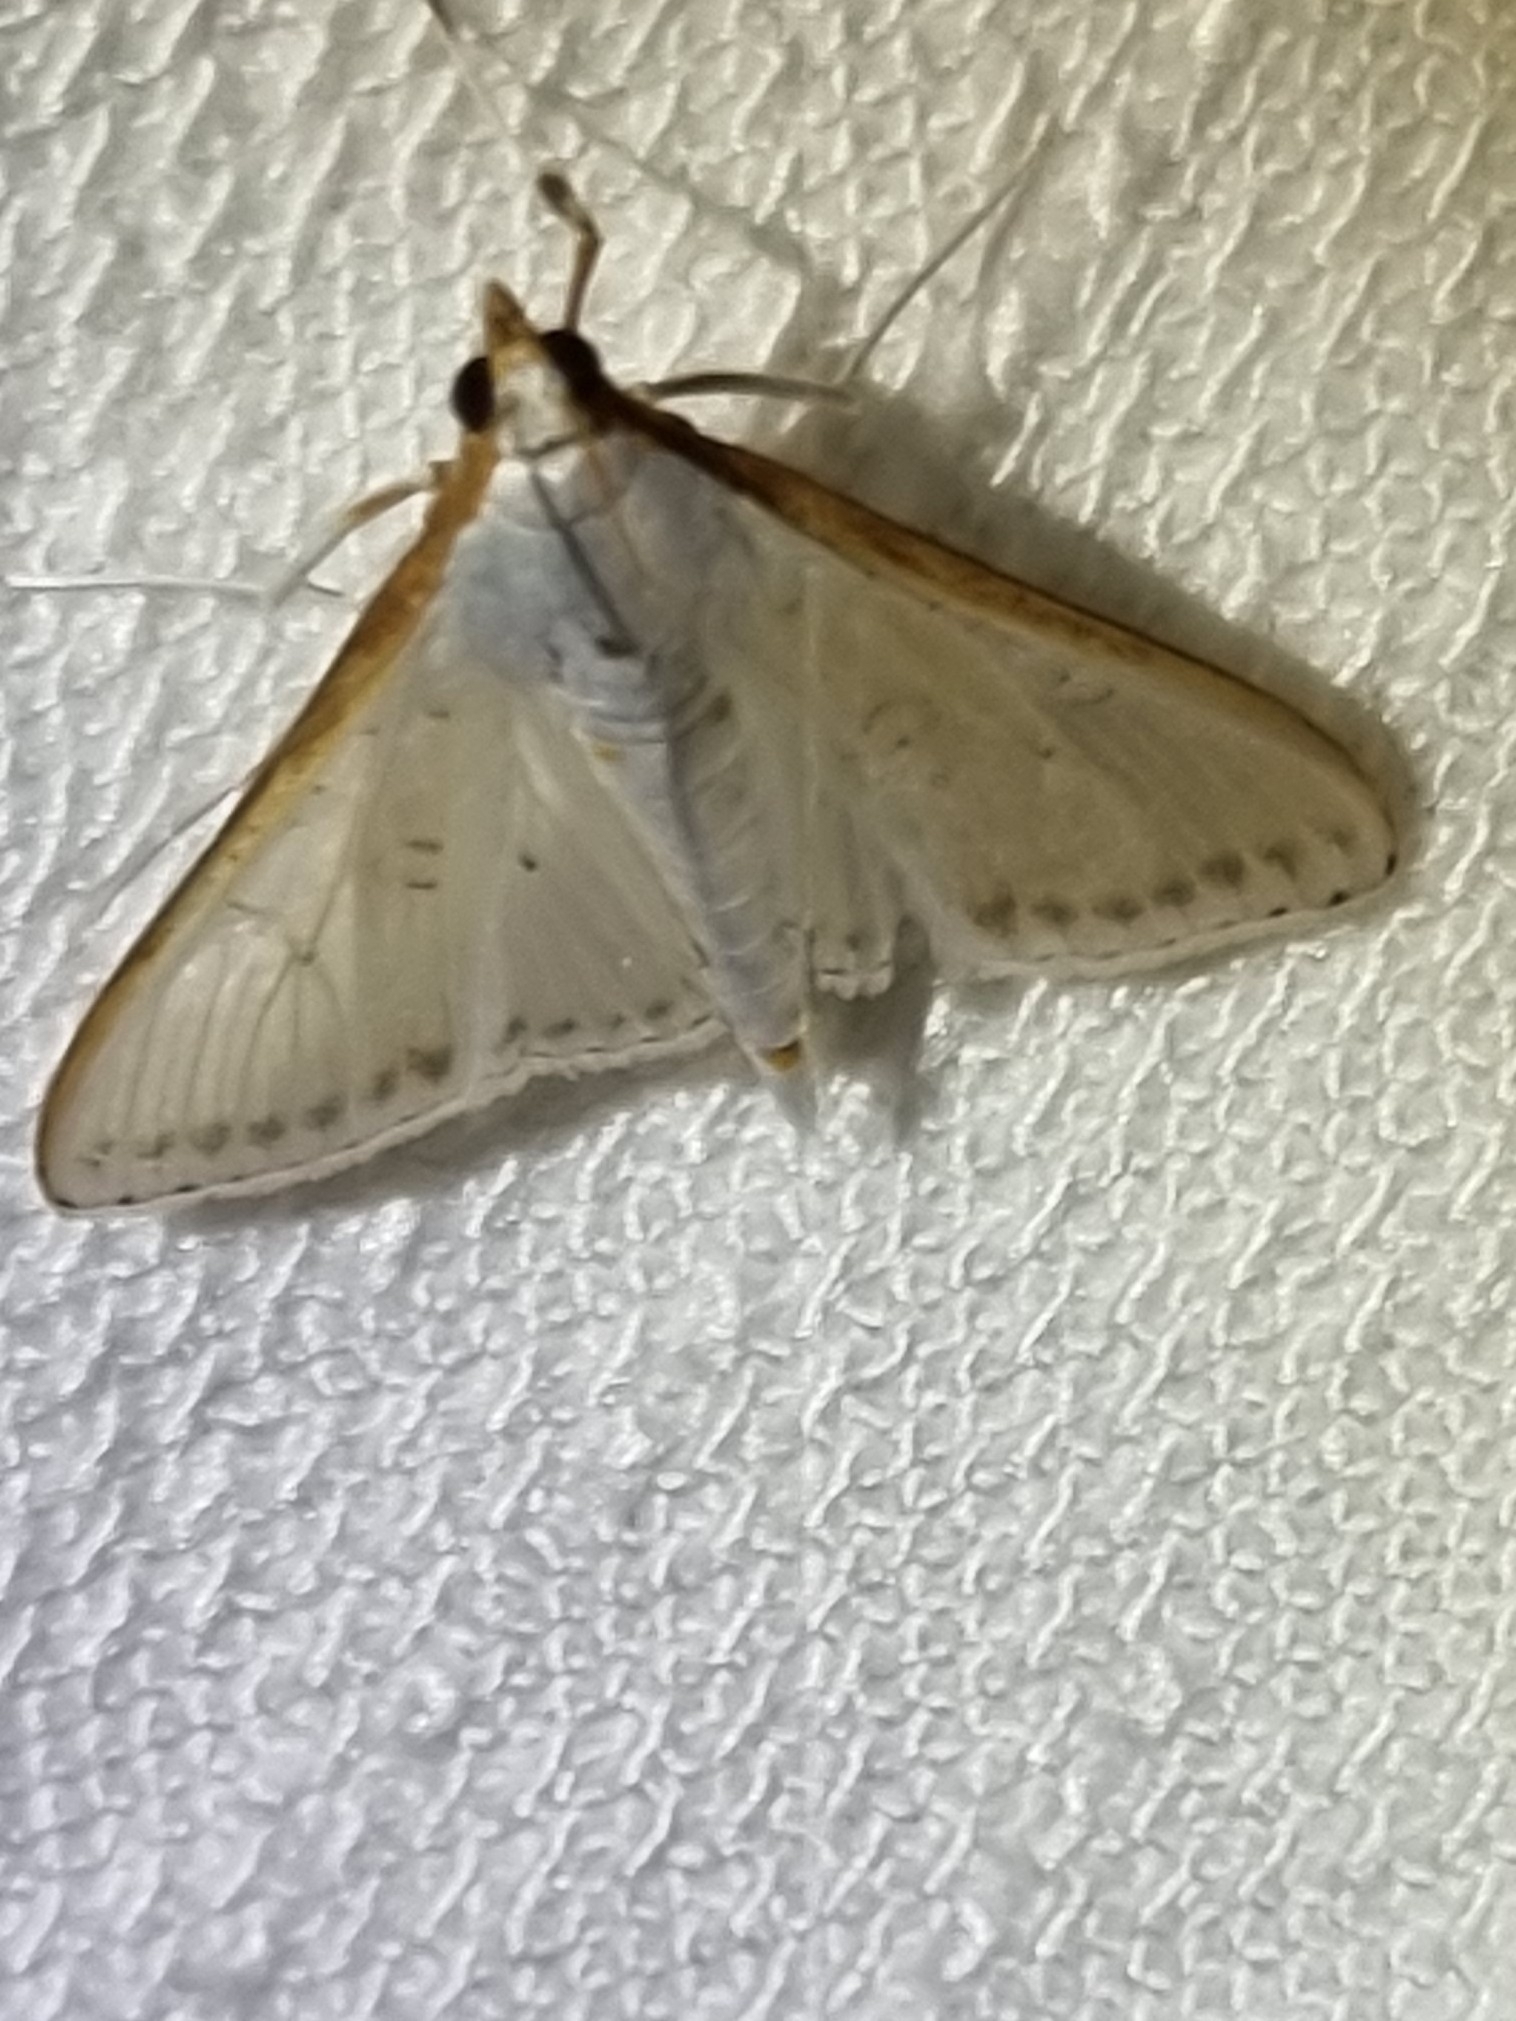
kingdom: Animalia
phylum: Arthropoda
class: Insecta
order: Lepidoptera
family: Crambidae
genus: Palpita
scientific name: Palpita pratti
